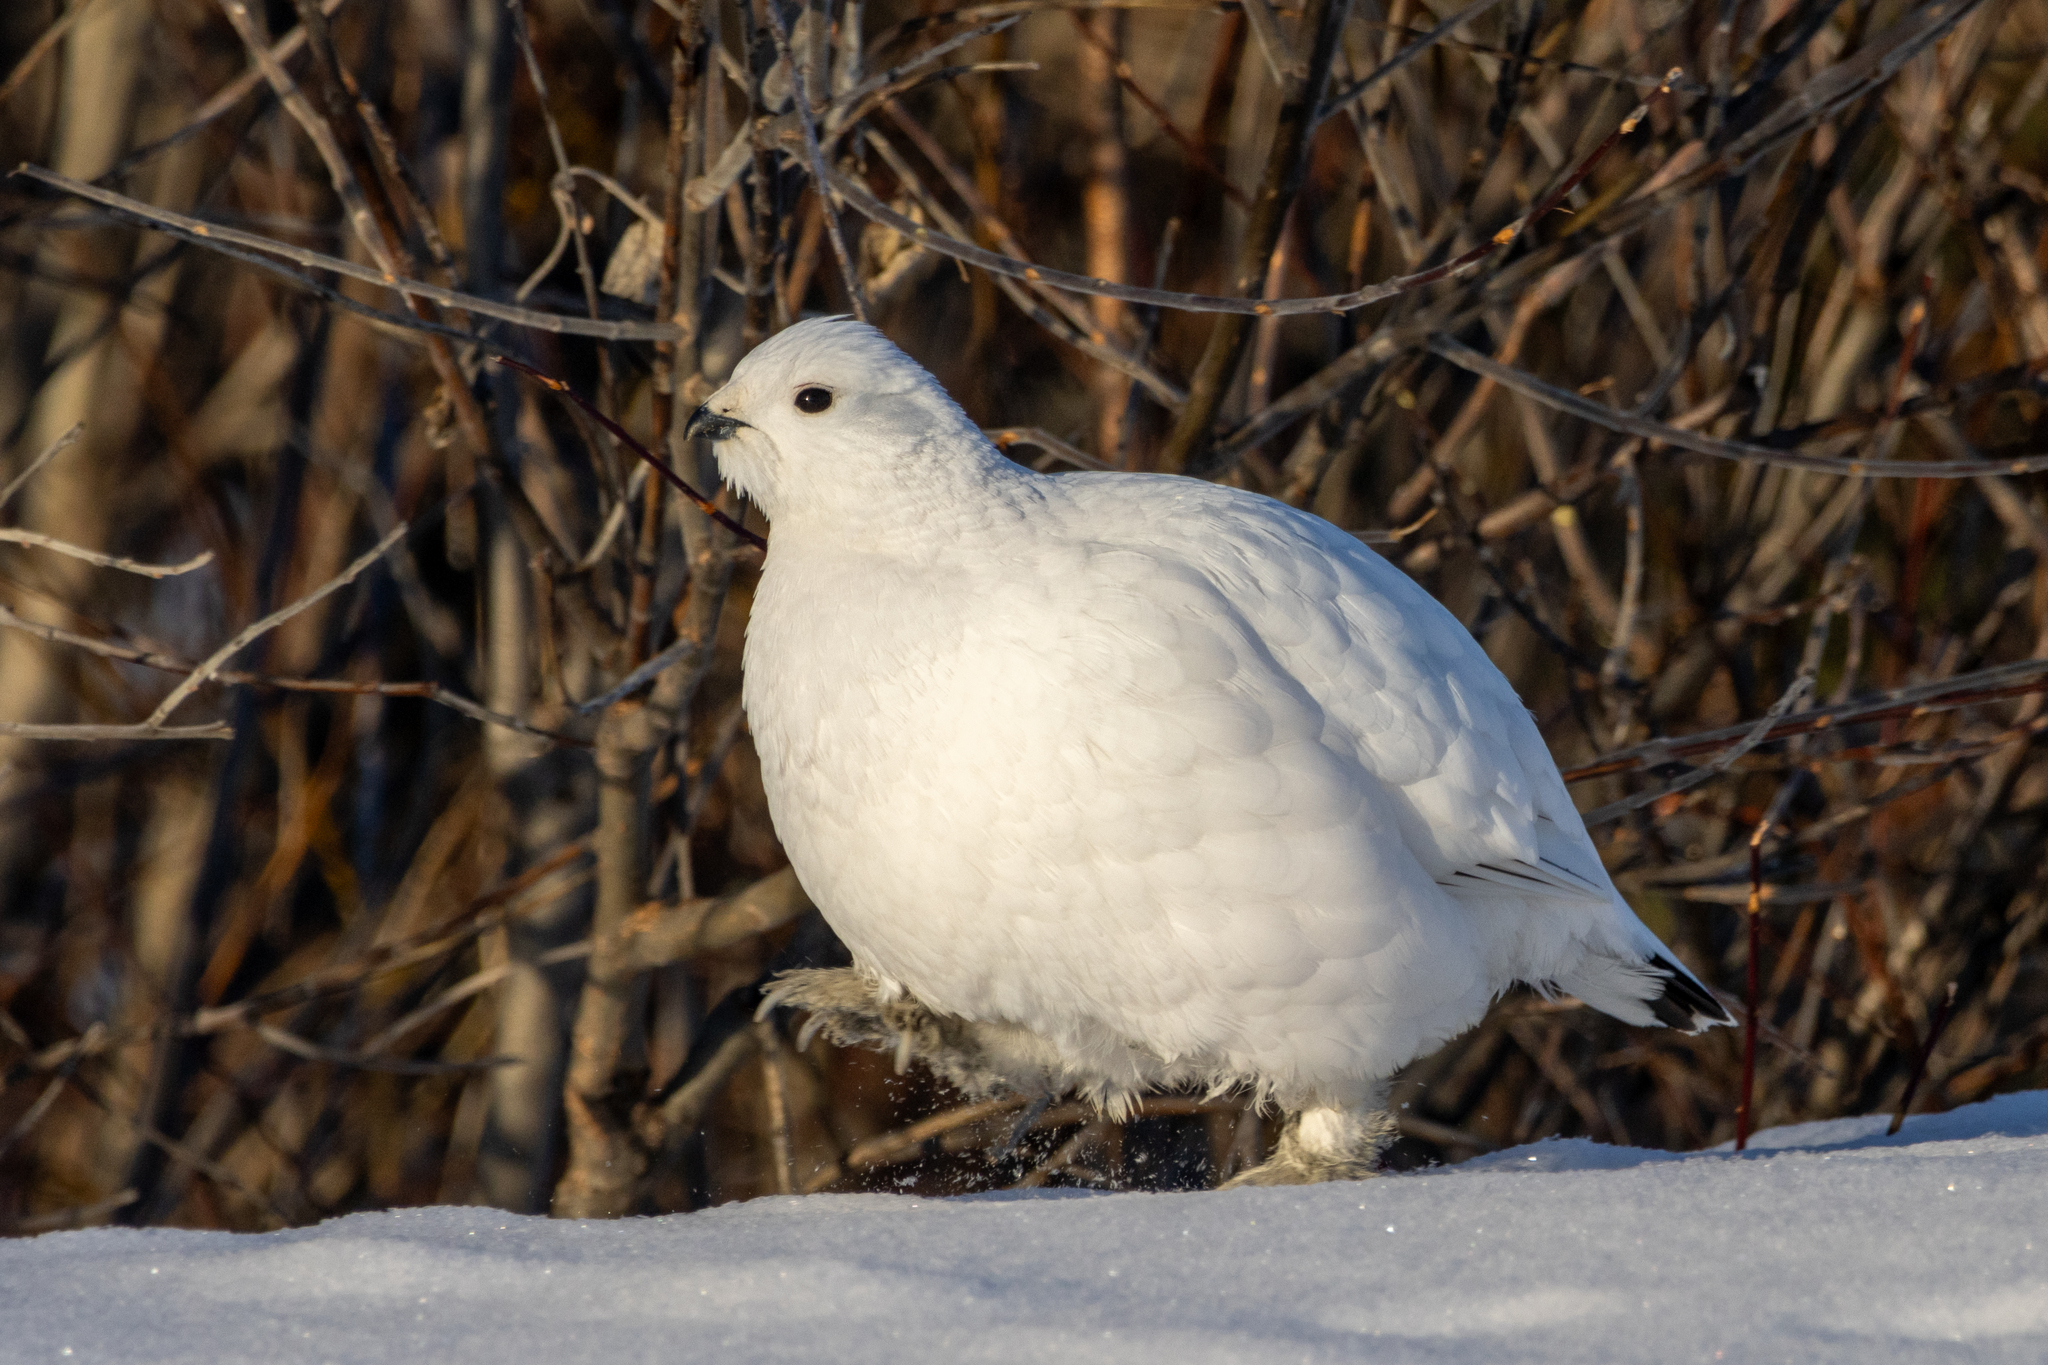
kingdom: Animalia
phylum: Chordata
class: Aves
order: Galliformes
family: Phasianidae
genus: Lagopus
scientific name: Lagopus lagopus
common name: Willow ptarmigan
